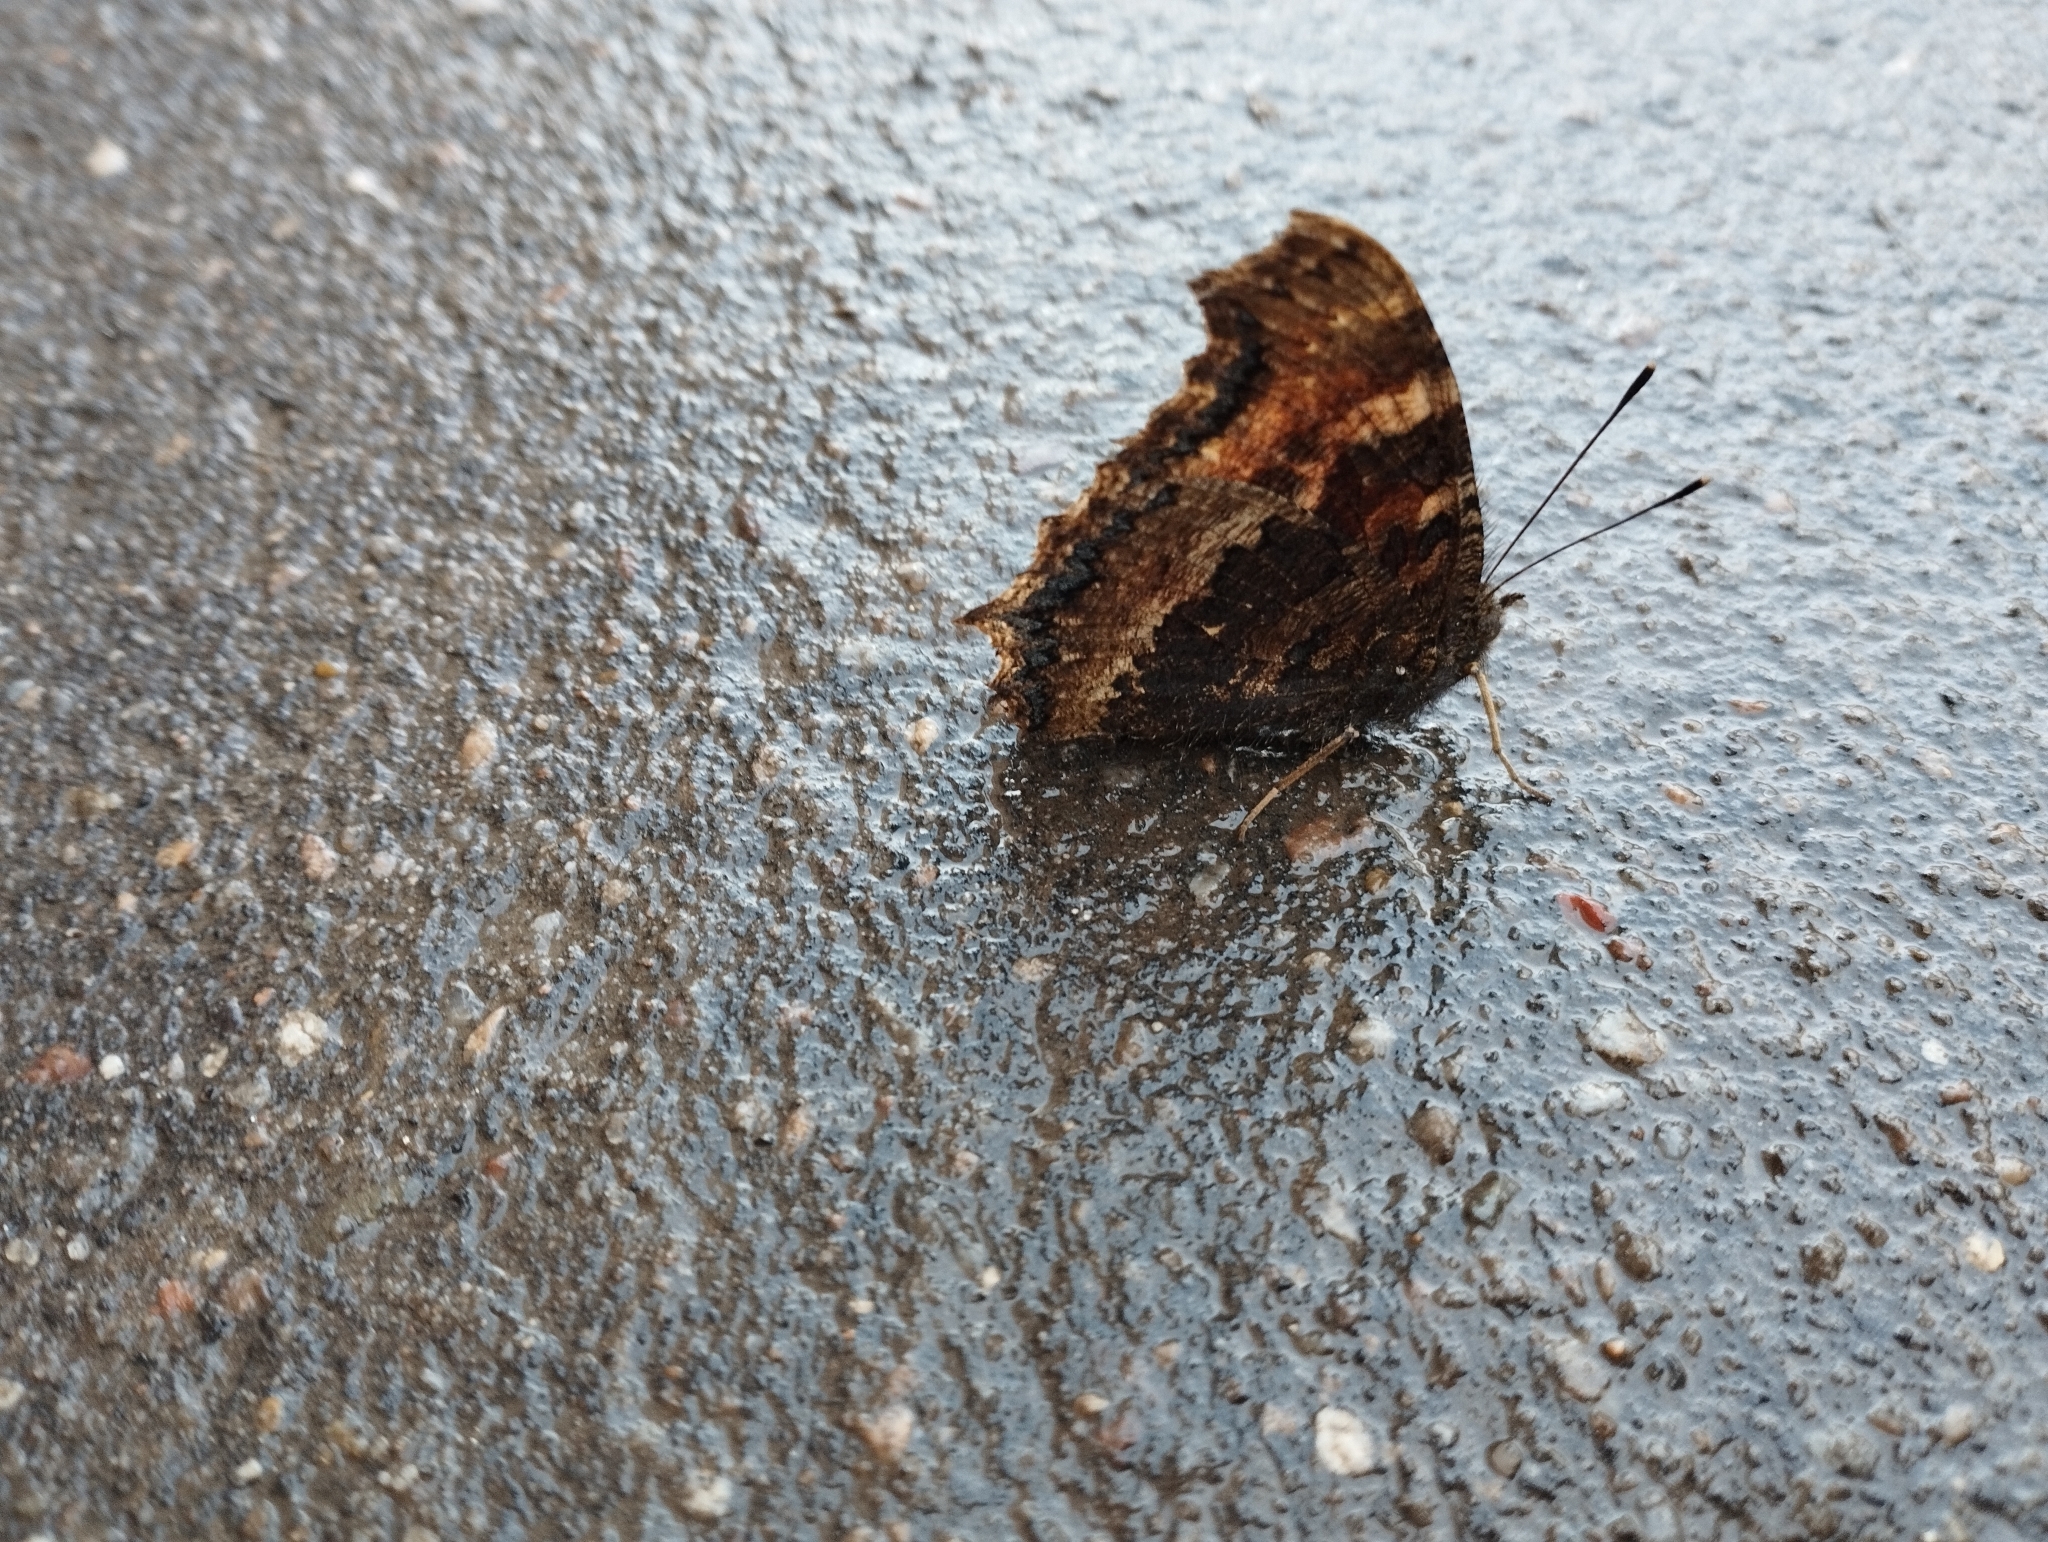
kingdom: Animalia
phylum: Arthropoda
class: Insecta
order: Lepidoptera
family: Nymphalidae
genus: Nymphalis
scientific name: Nymphalis xanthomelas
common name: Scarce tortoiseshell
